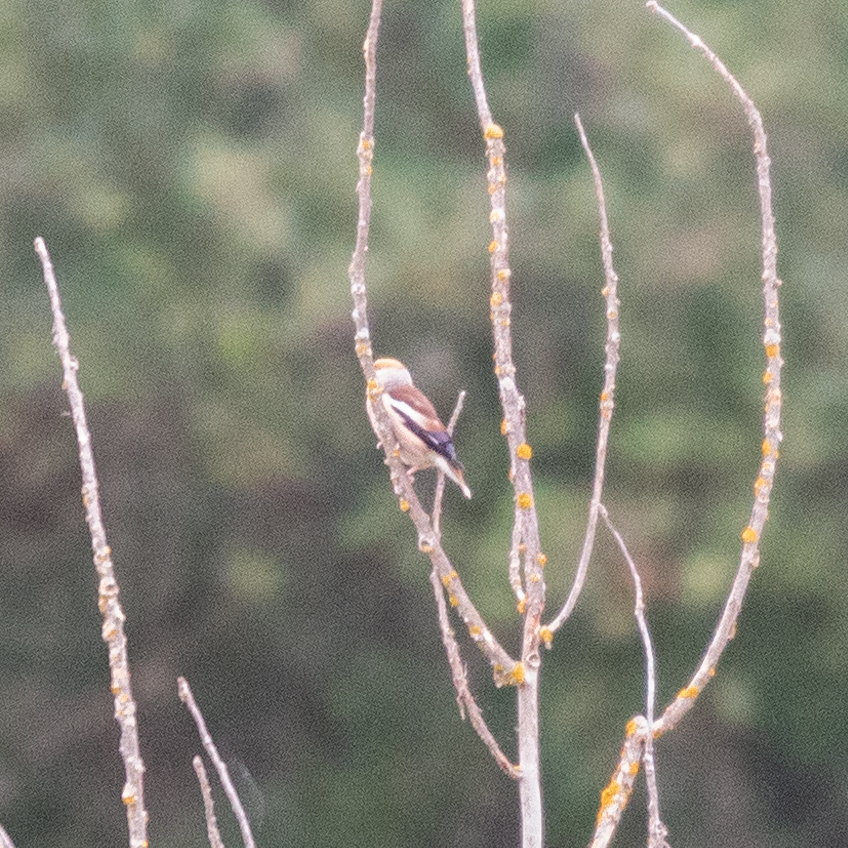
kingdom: Animalia
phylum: Chordata
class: Aves
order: Passeriformes
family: Fringillidae
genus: Coccothraustes
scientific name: Coccothraustes coccothraustes
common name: Hawfinch
